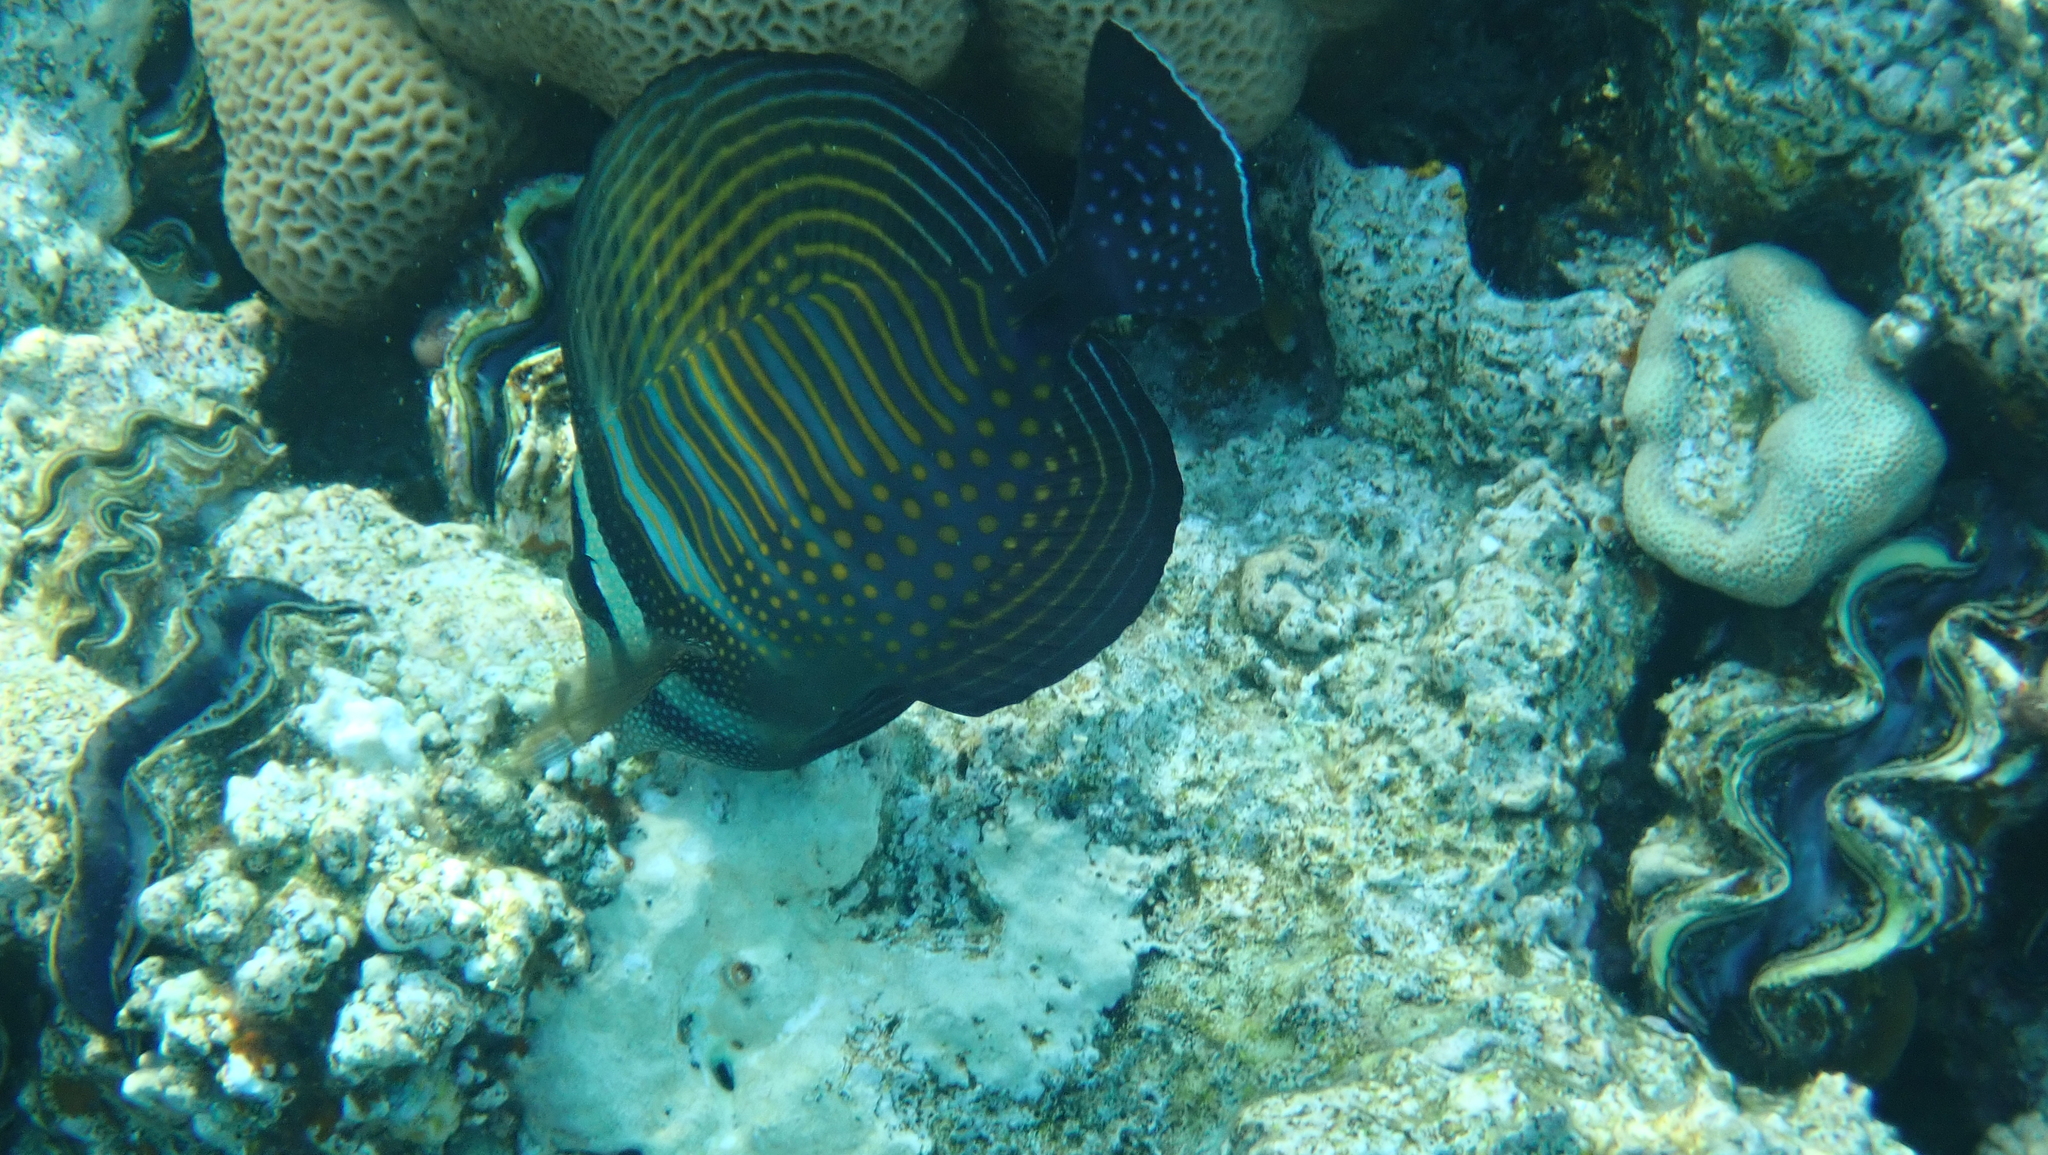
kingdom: Animalia
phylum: Chordata
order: Perciformes
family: Acanthuridae
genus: Zebrasoma
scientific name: Zebrasoma desjardinii
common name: Desjardin's sailfin tang
